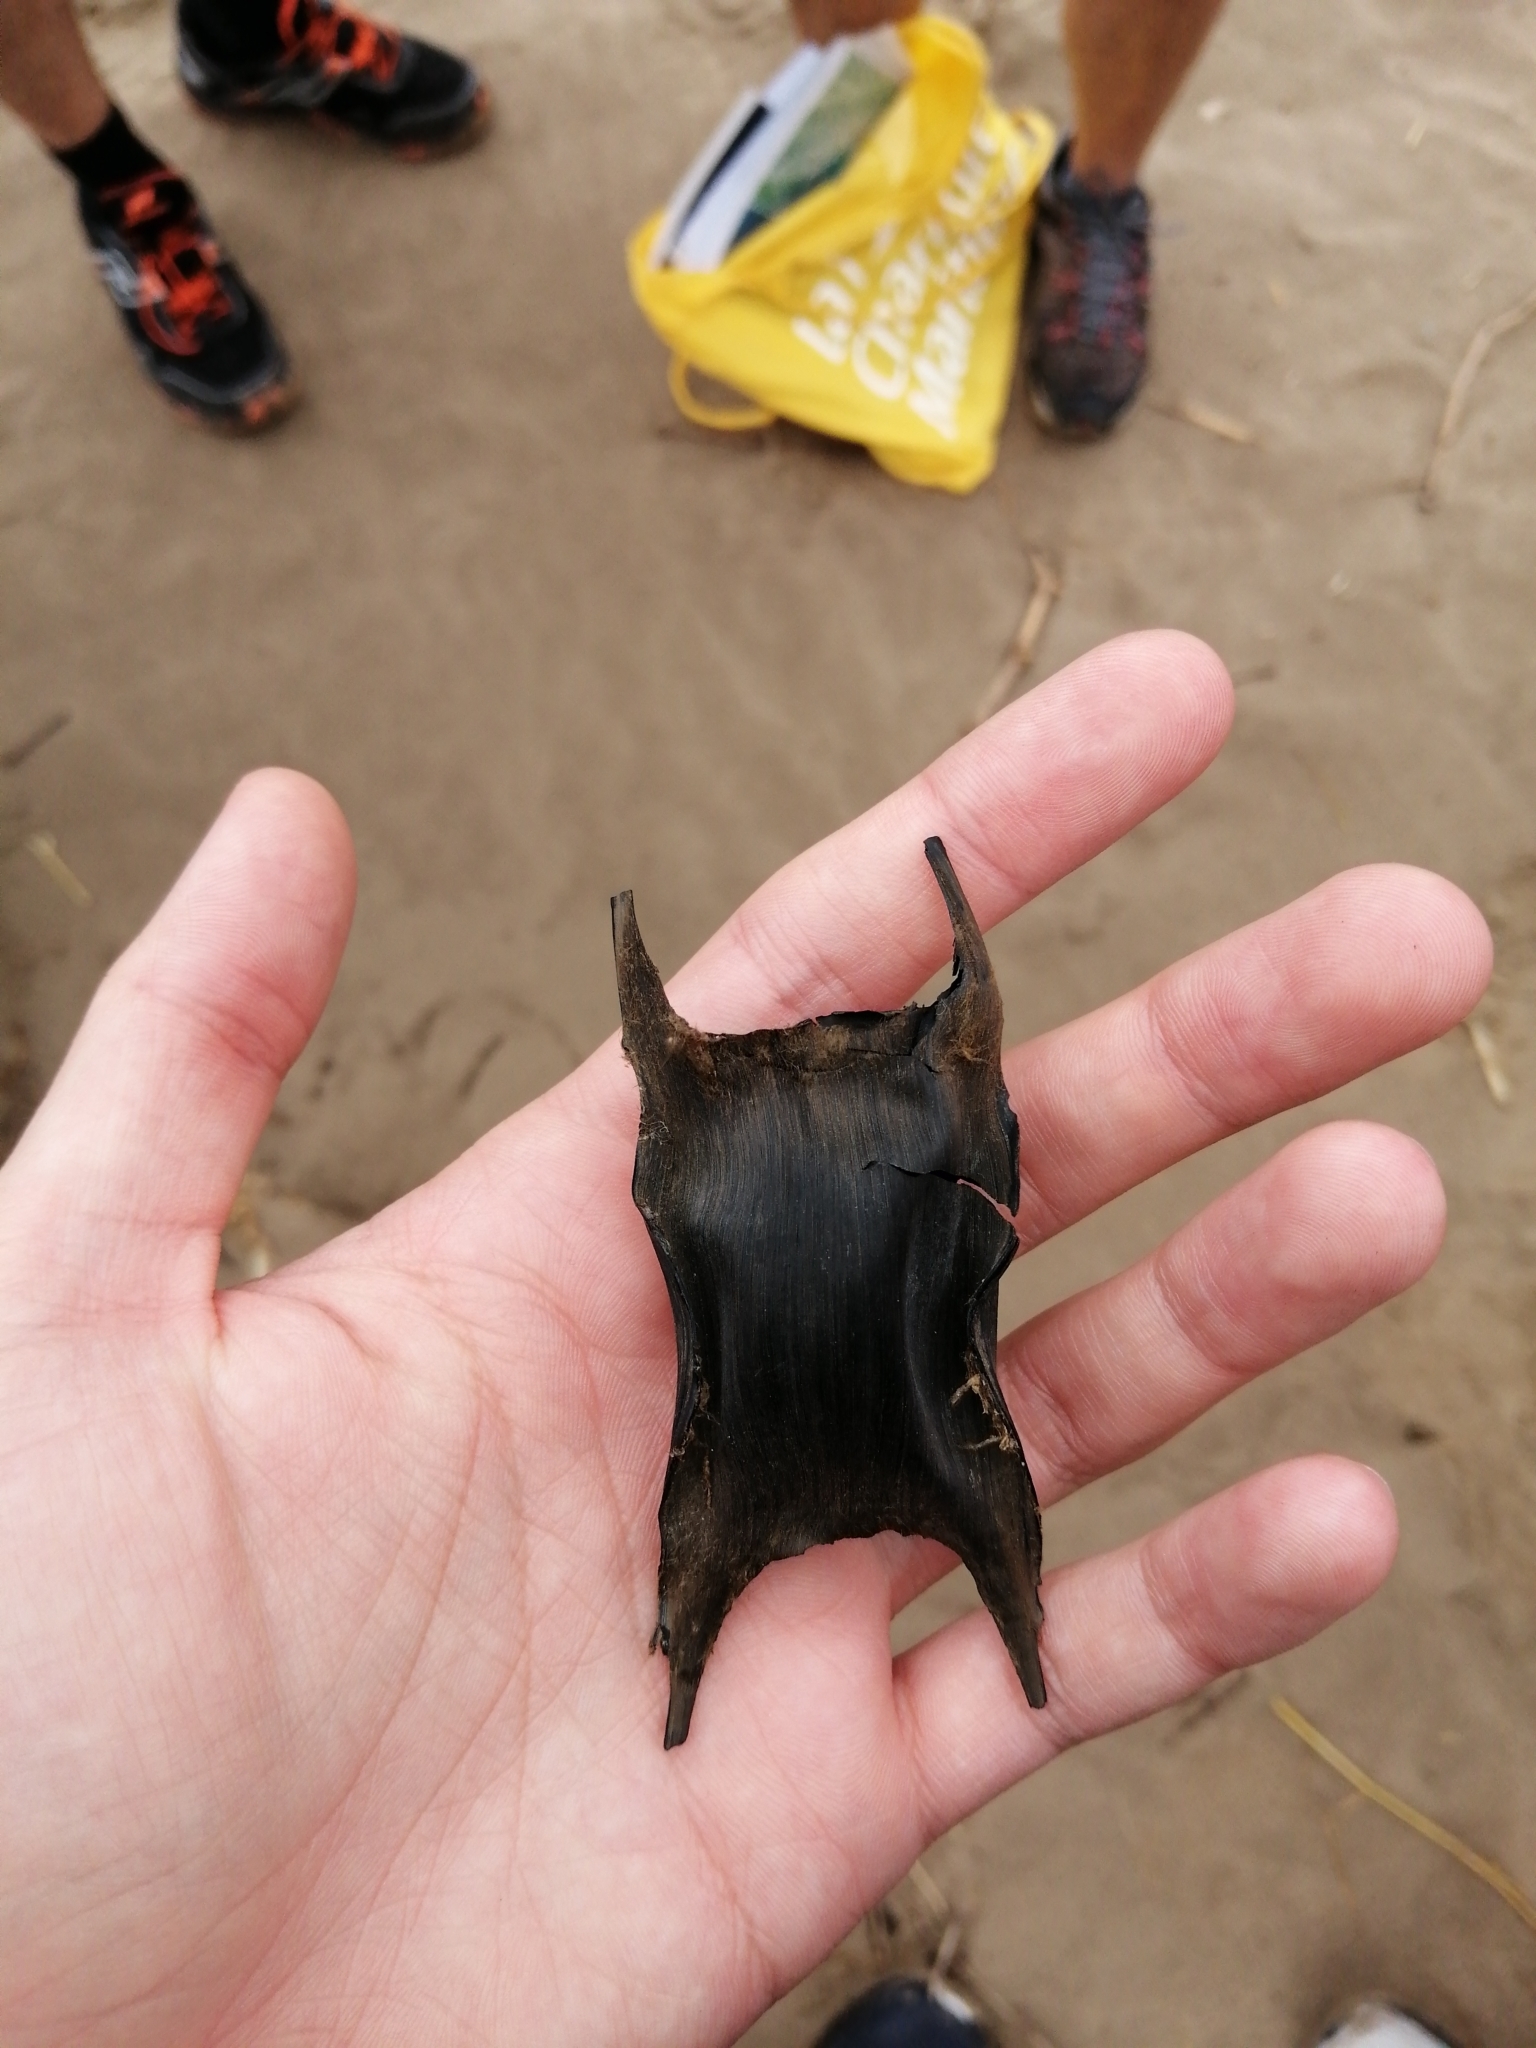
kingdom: Animalia
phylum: Chordata
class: Elasmobranchii
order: Rajiformes
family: Rajidae
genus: Raja
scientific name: Raja clavata
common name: Thornback ray
